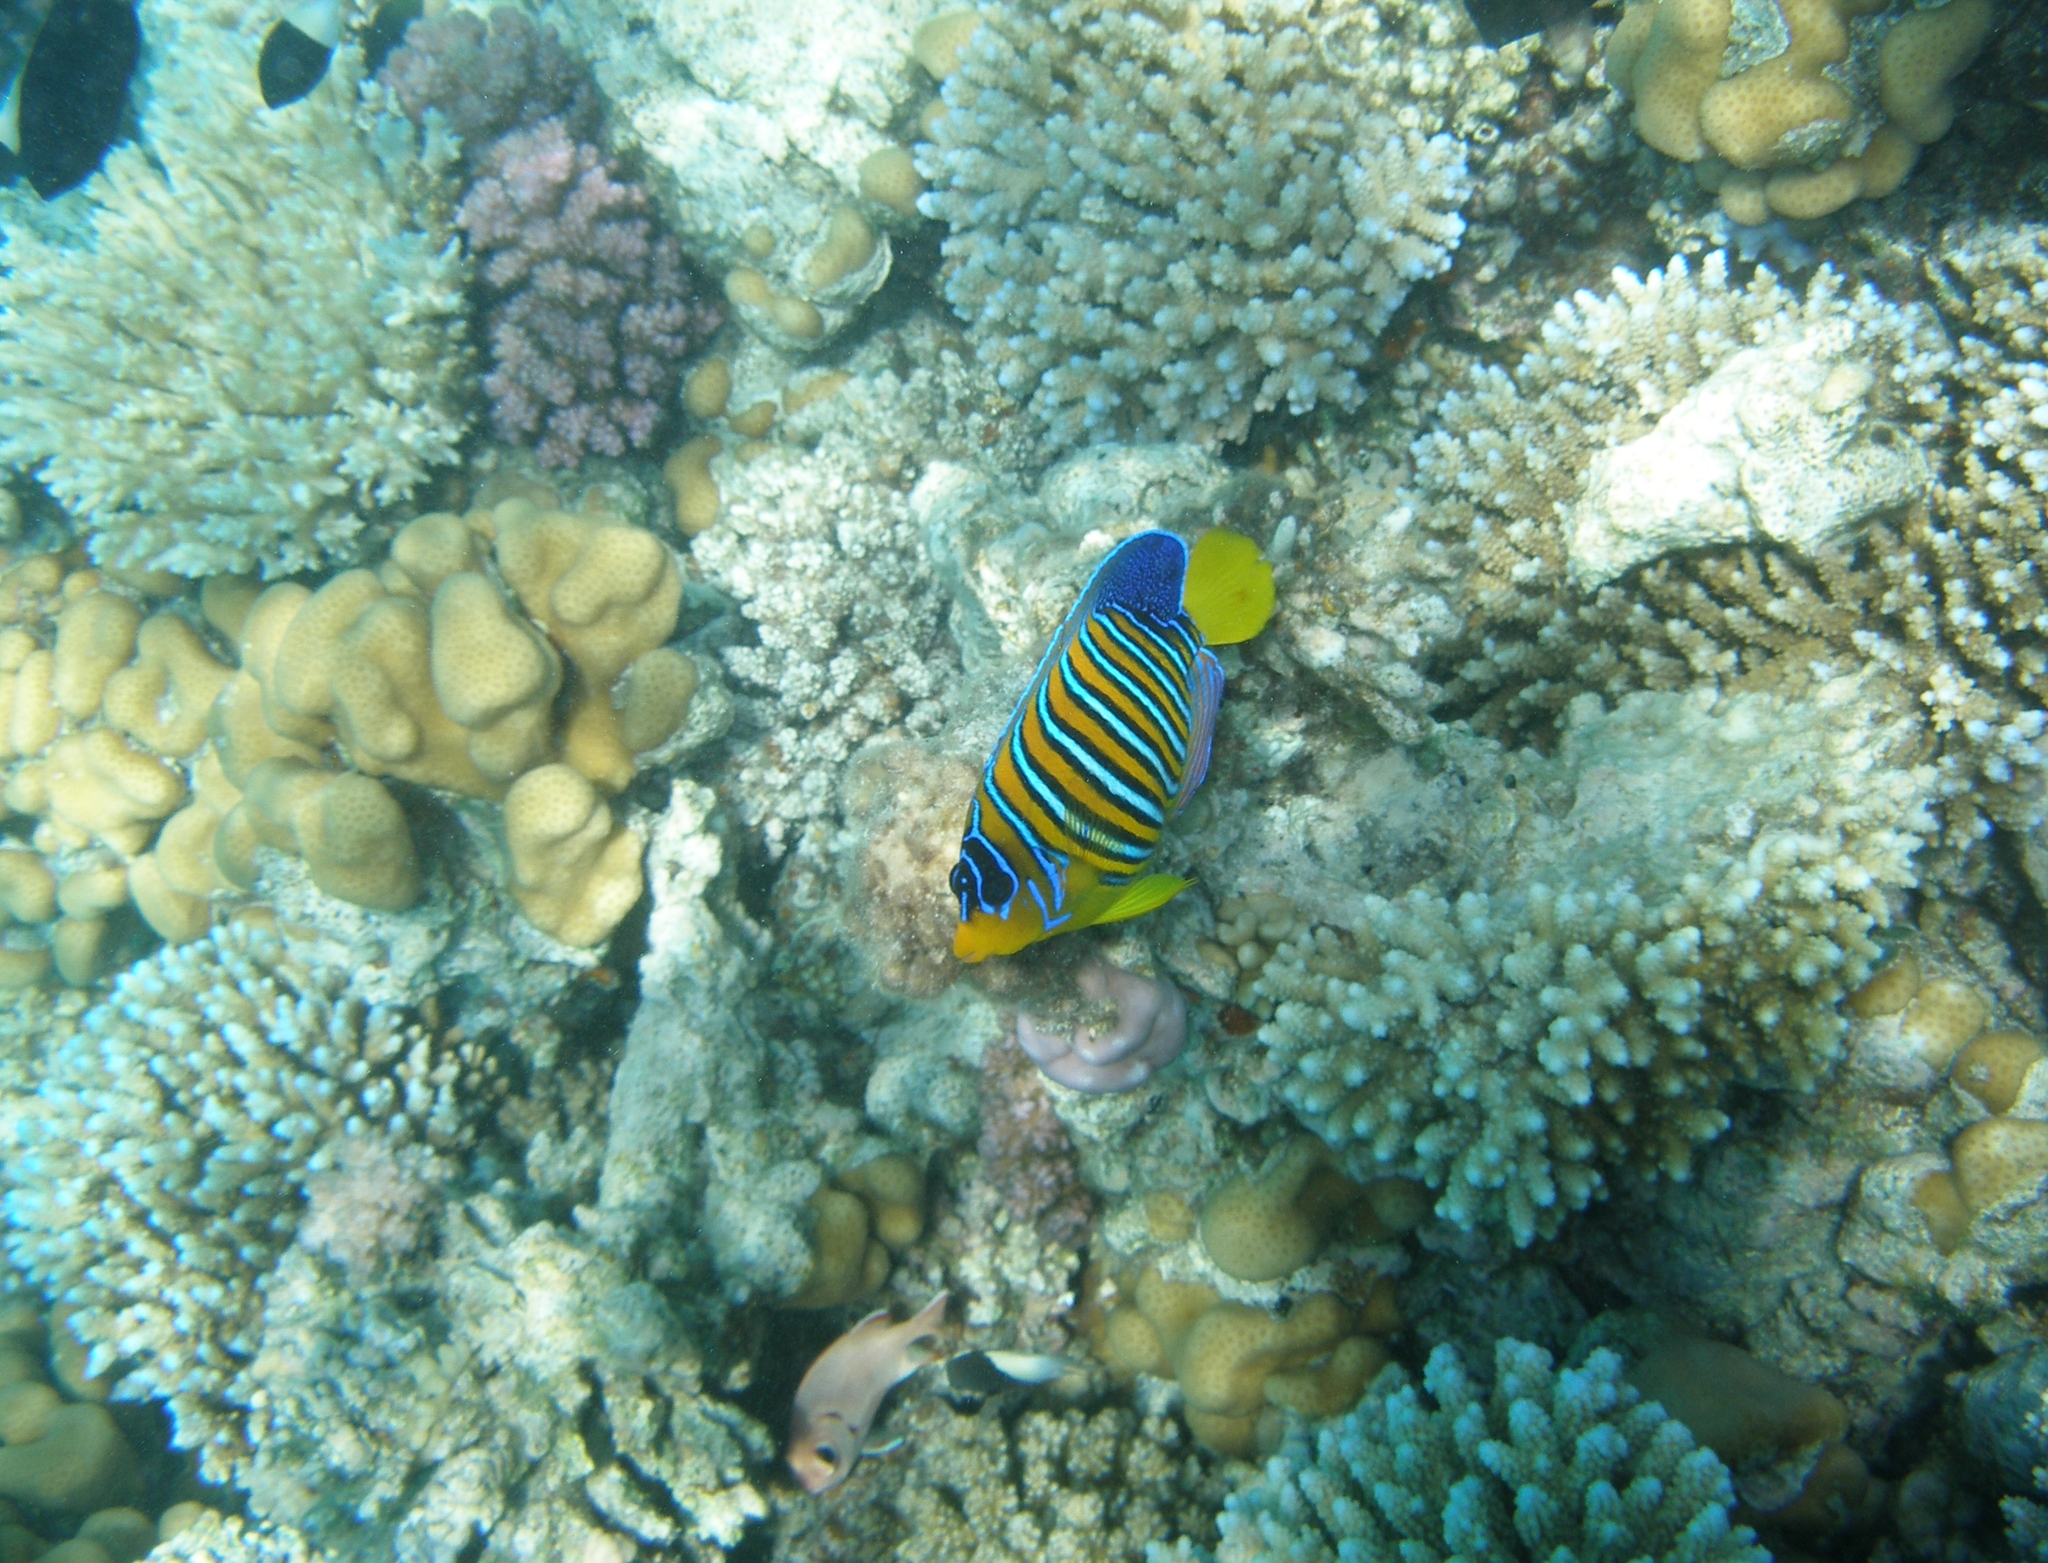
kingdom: Animalia
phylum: Chordata
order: Perciformes
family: Pomacanthidae
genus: Pygoplites
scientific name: Pygoplites diacanthus
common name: Regal angelfish
